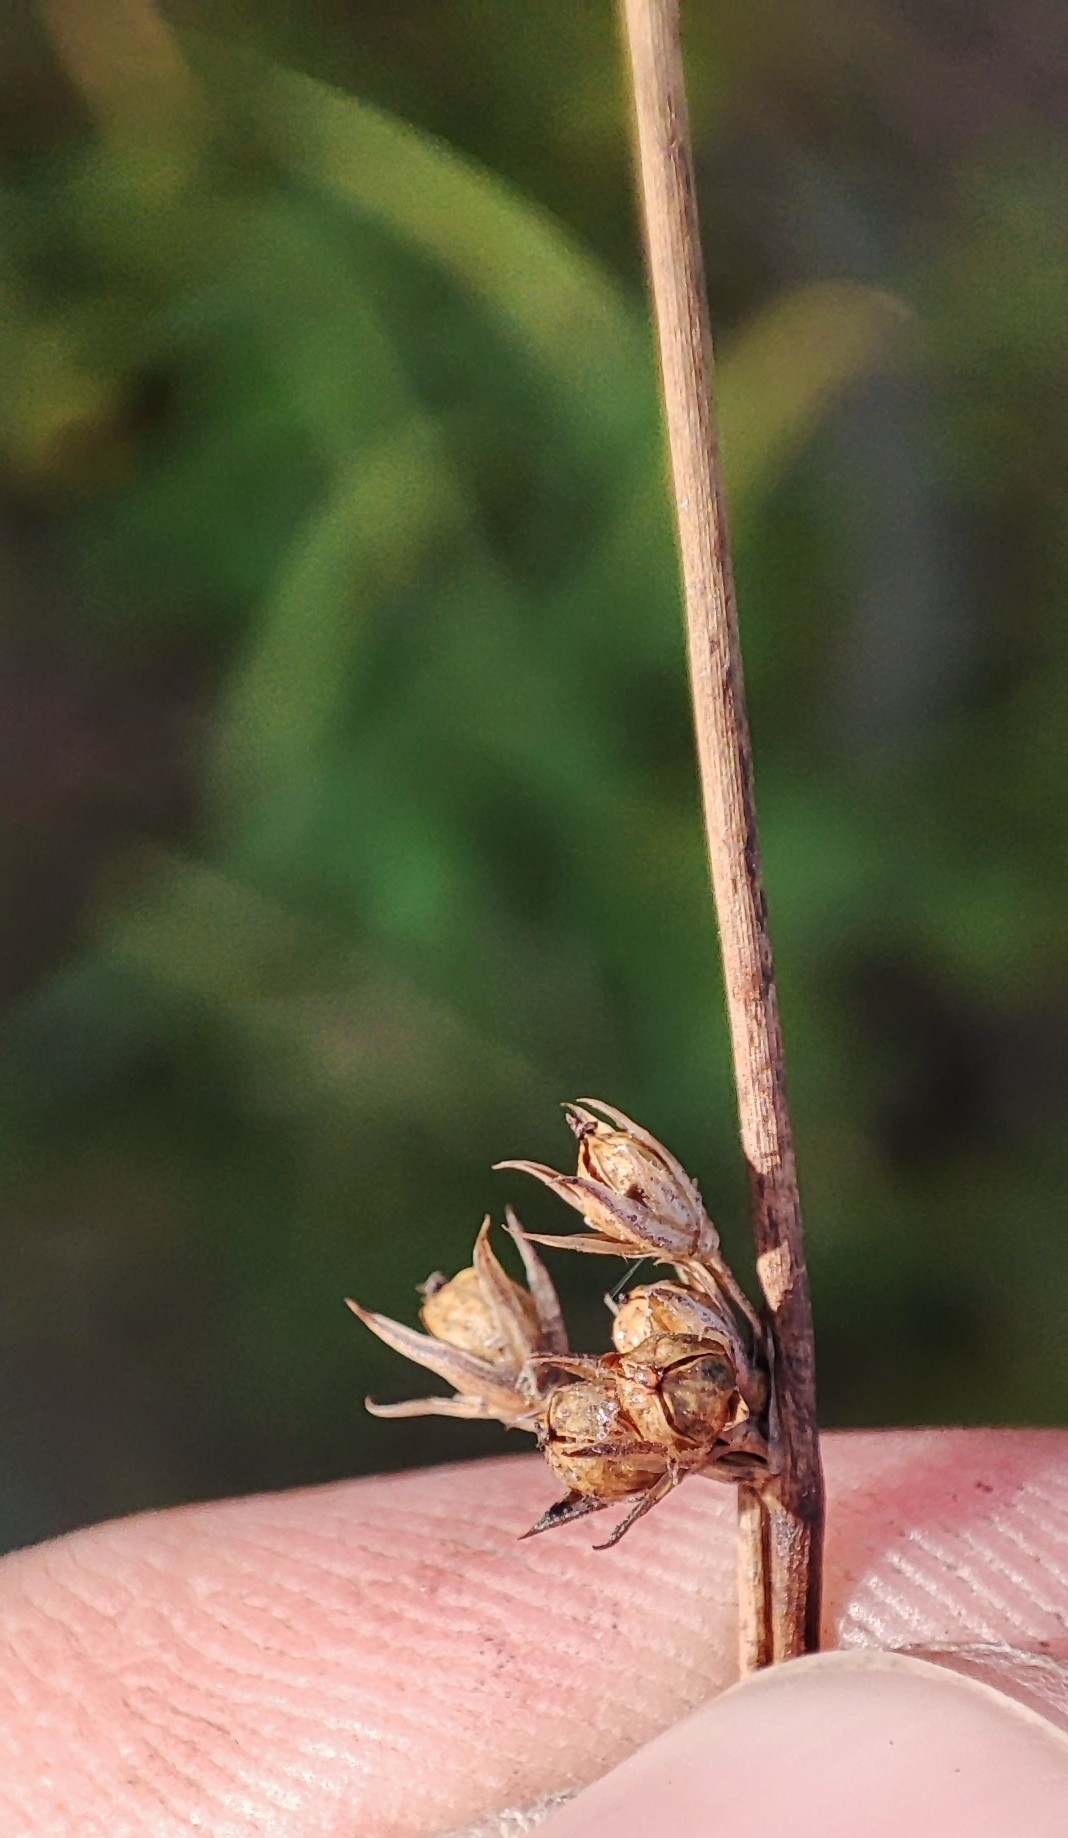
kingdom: Plantae
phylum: Tracheophyta
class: Liliopsida
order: Poales
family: Juncaceae
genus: Juncus
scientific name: Juncus filiformis
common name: Thread rush
